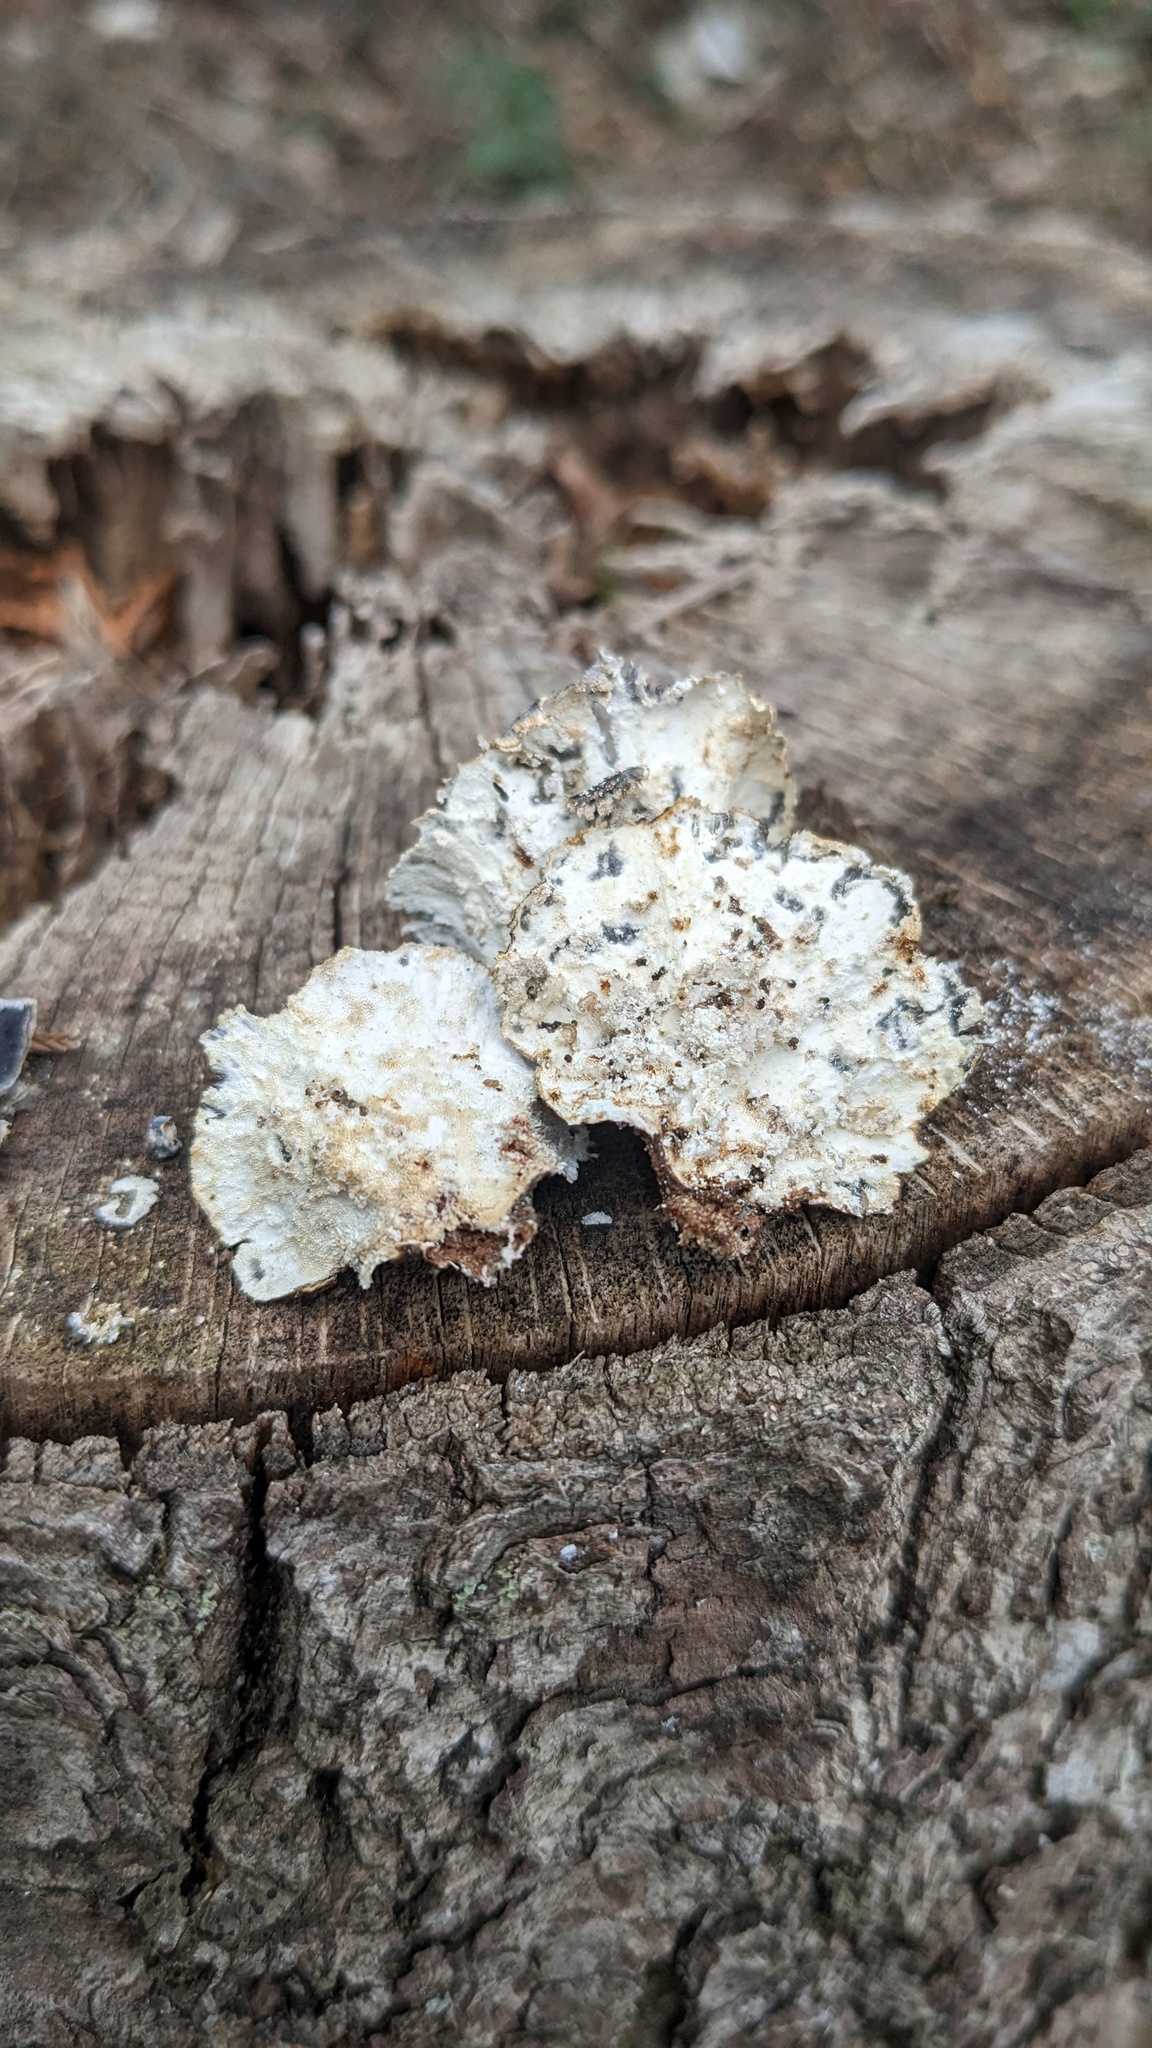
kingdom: Fungi
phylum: Basidiomycota
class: Agaricomycetes
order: Polyporales
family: Polyporaceae
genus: Trametes
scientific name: Trametes versicolor
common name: Turkeytail
